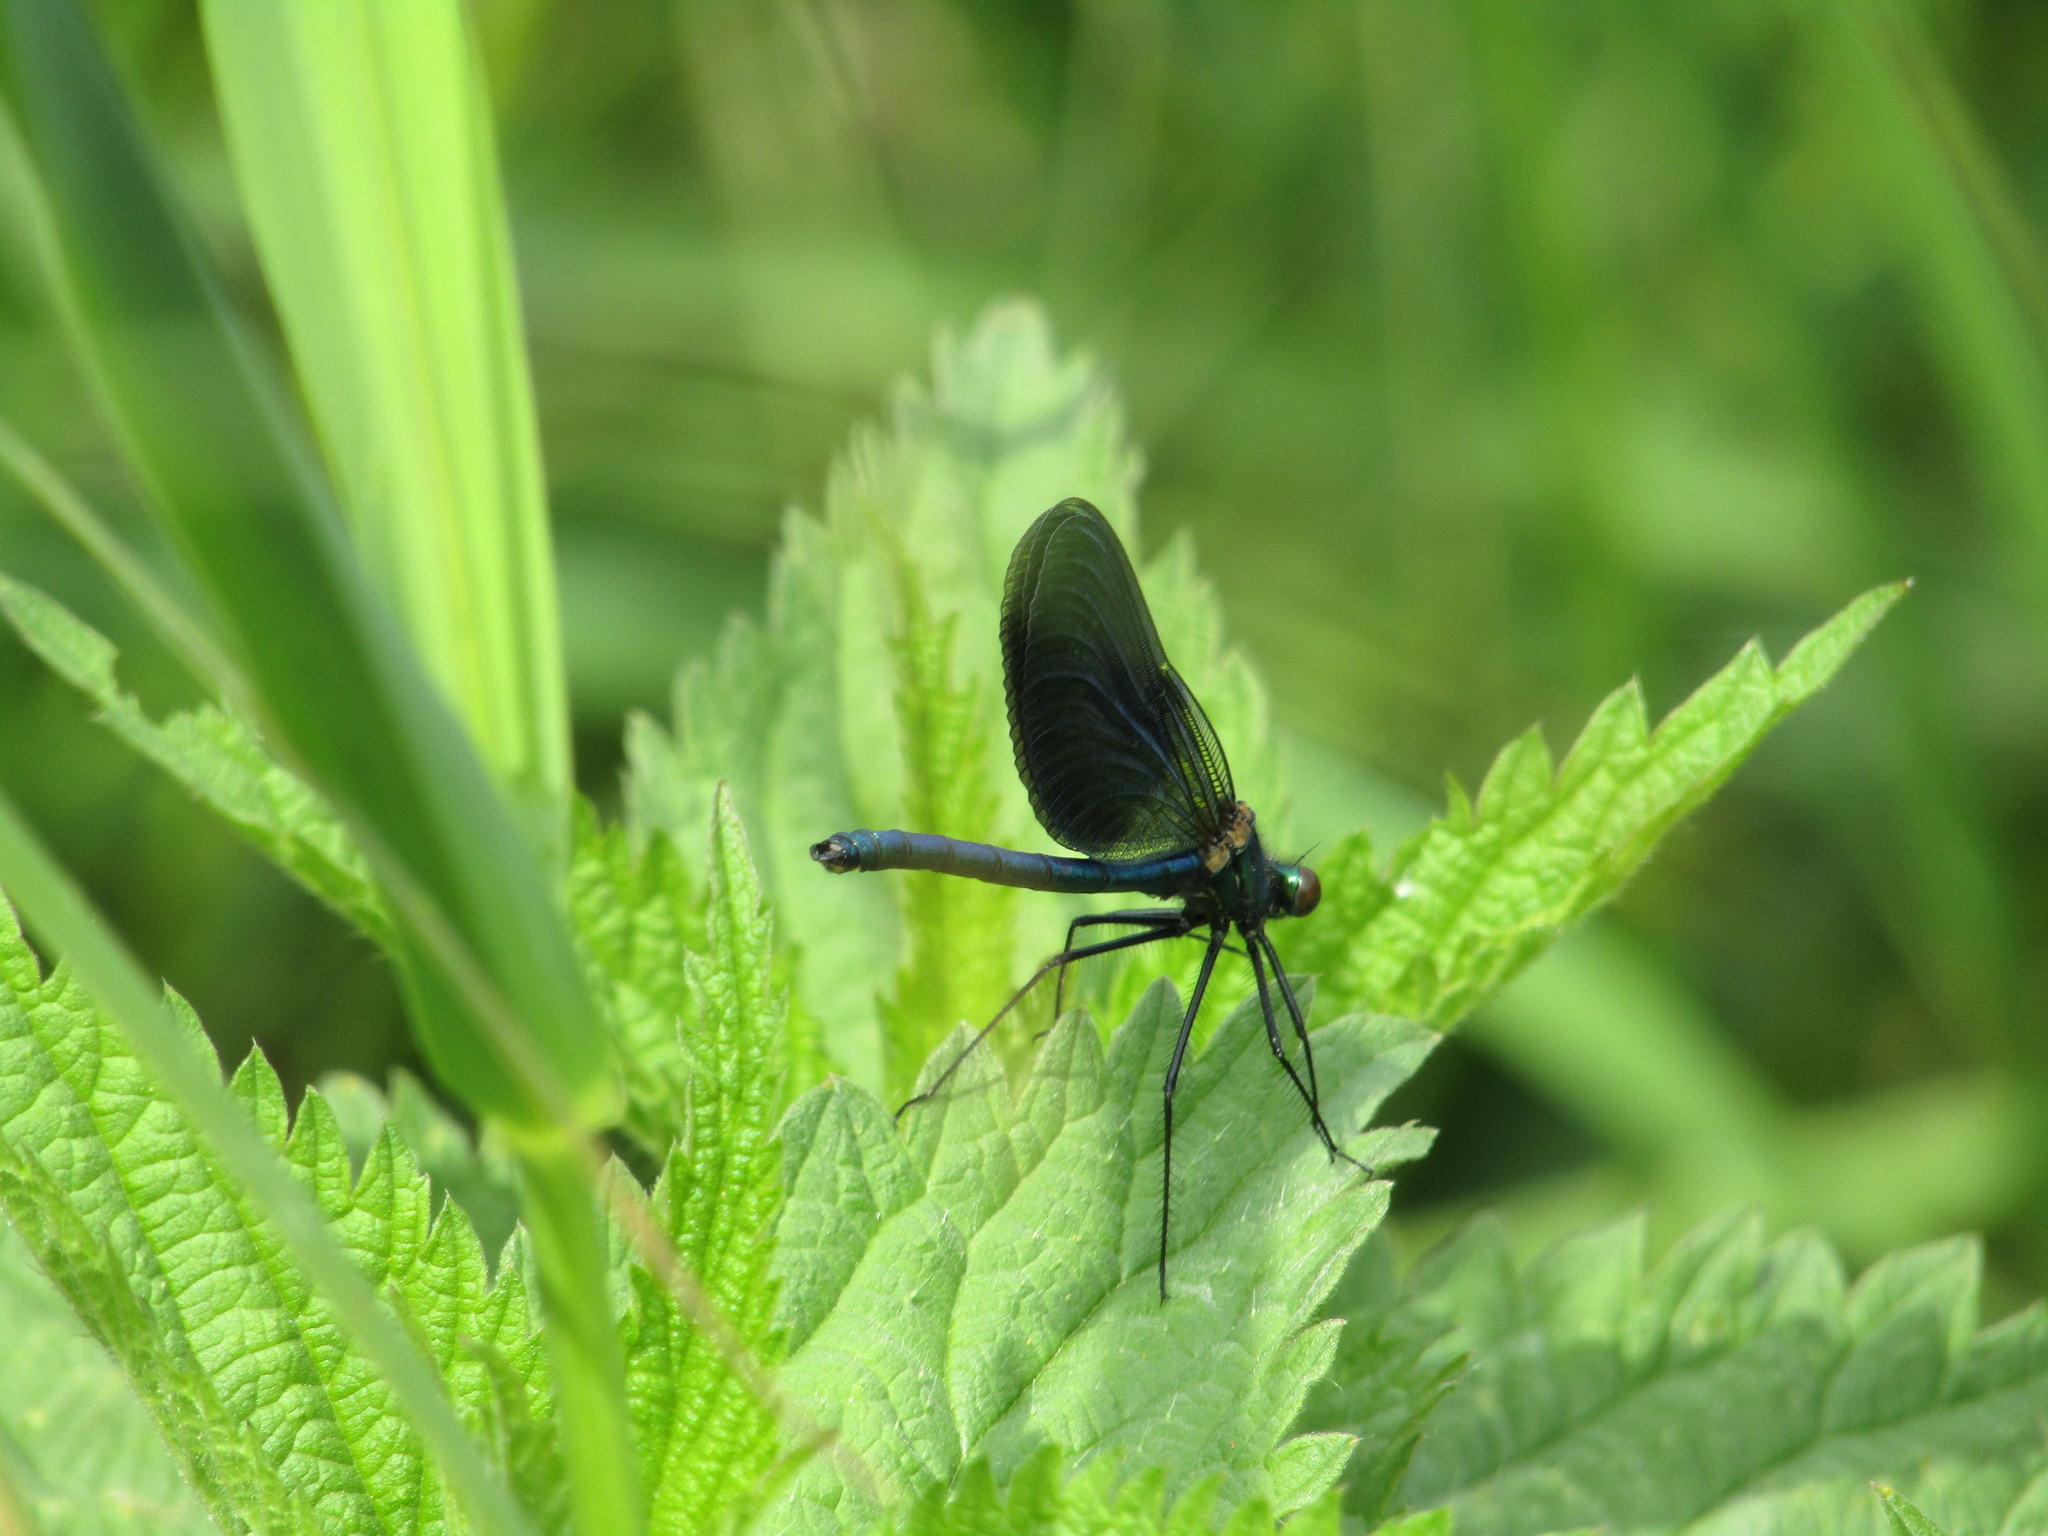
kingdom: Animalia
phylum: Arthropoda
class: Insecta
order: Odonata
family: Calopterygidae
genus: Calopteryx
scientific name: Calopteryx splendens
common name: Banded demoiselle
